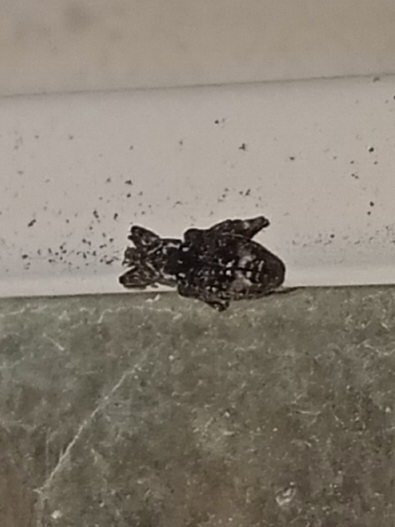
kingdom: Animalia
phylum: Arthropoda
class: Insecta
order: Coleoptera
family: Curculionidae
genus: Conotrachelus
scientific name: Conotrachelus nenuphar
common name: Plum curculio
